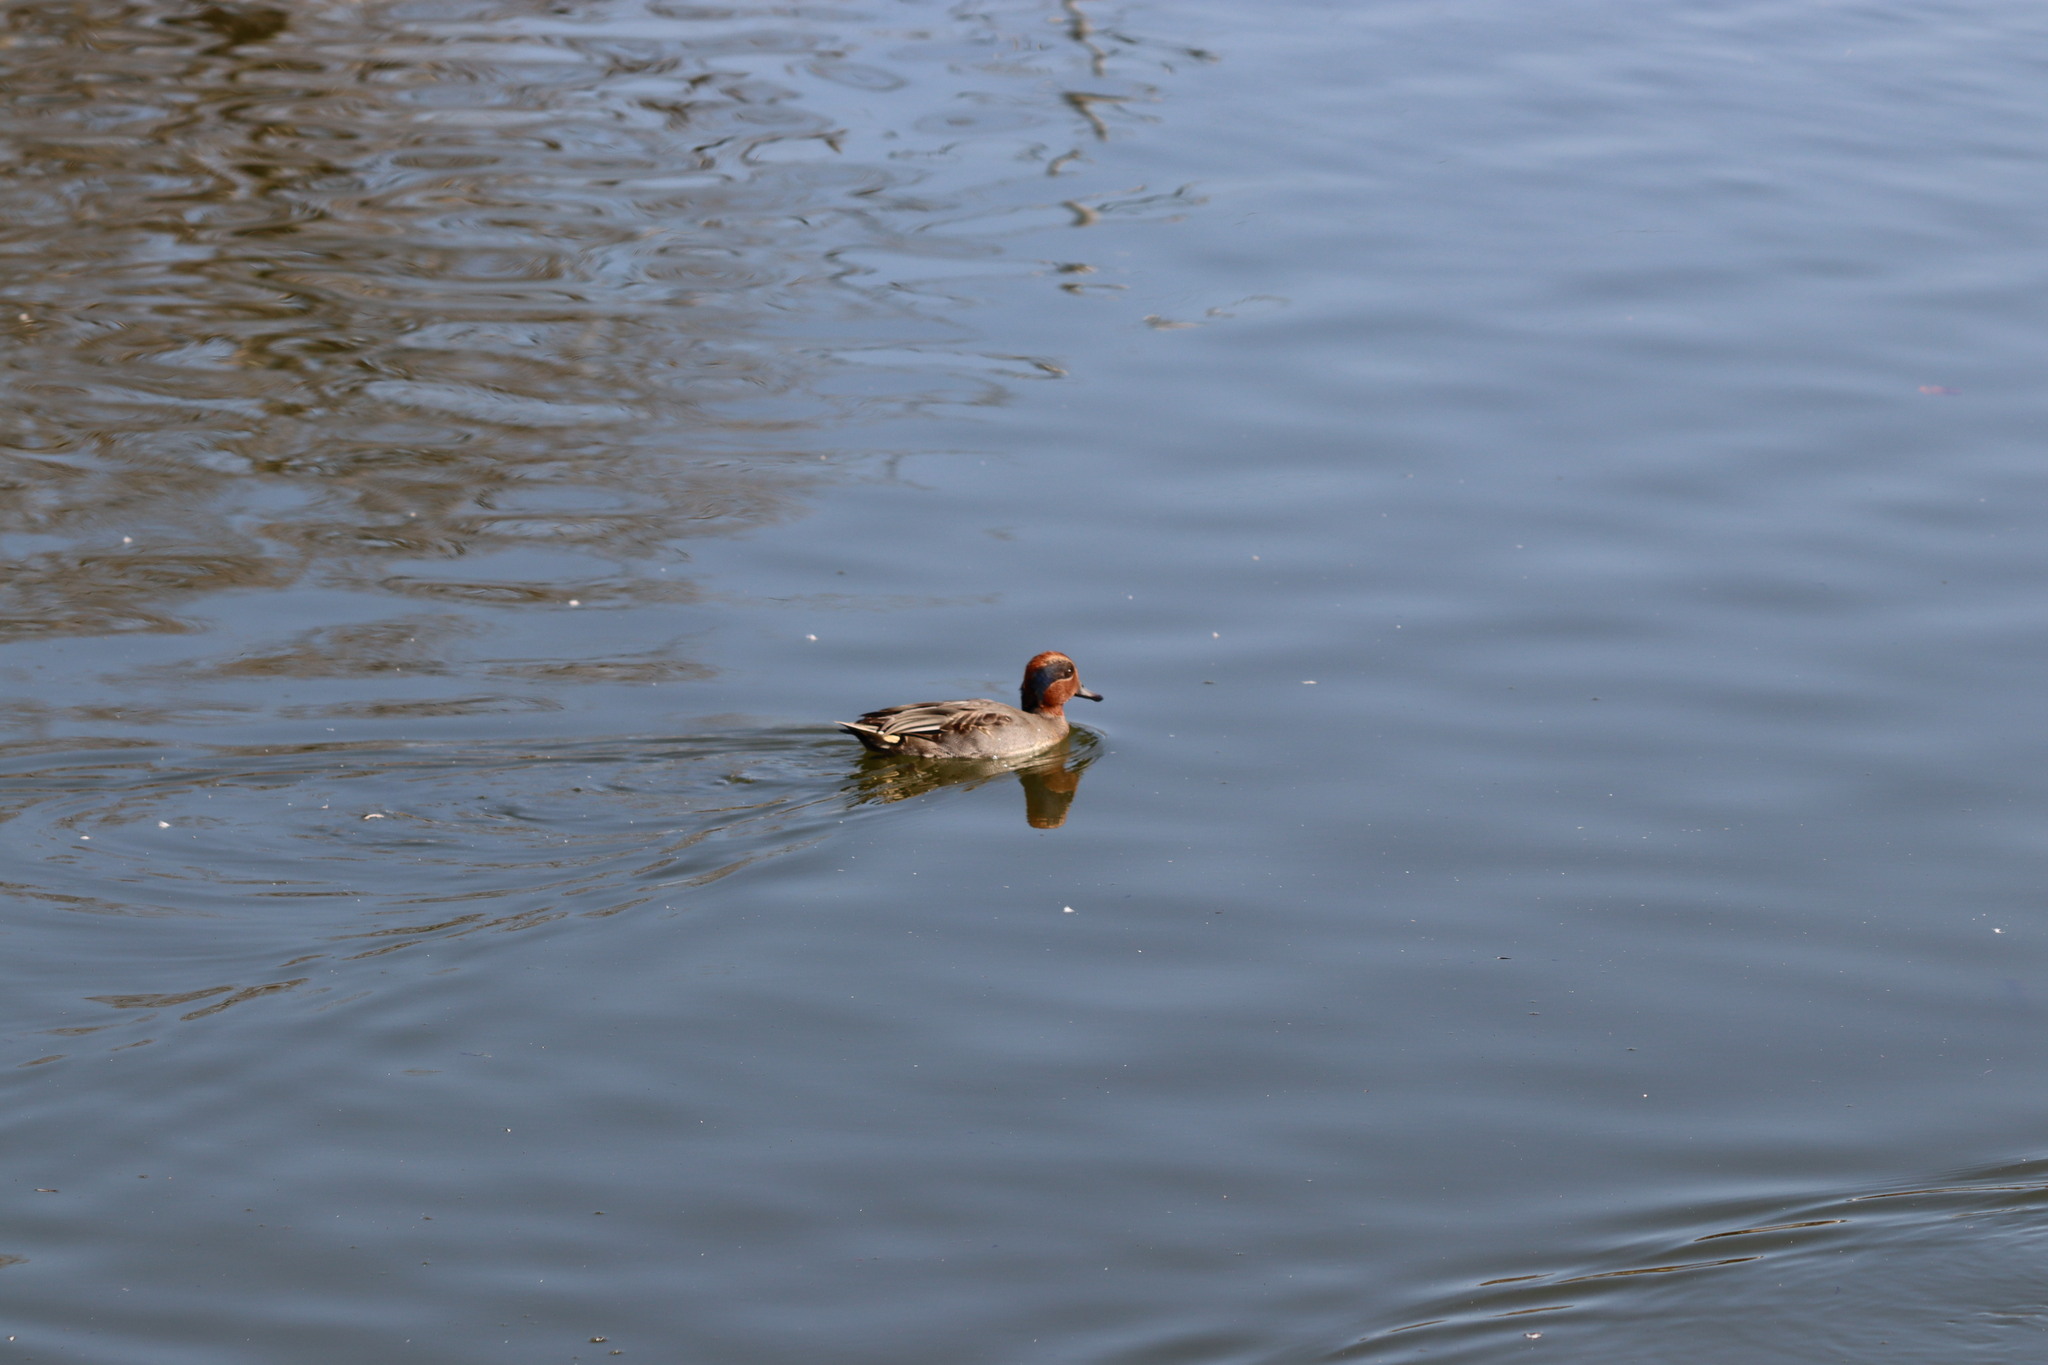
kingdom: Animalia
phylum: Chordata
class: Aves
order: Anseriformes
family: Anatidae
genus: Anas
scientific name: Anas crecca
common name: Eurasian teal
